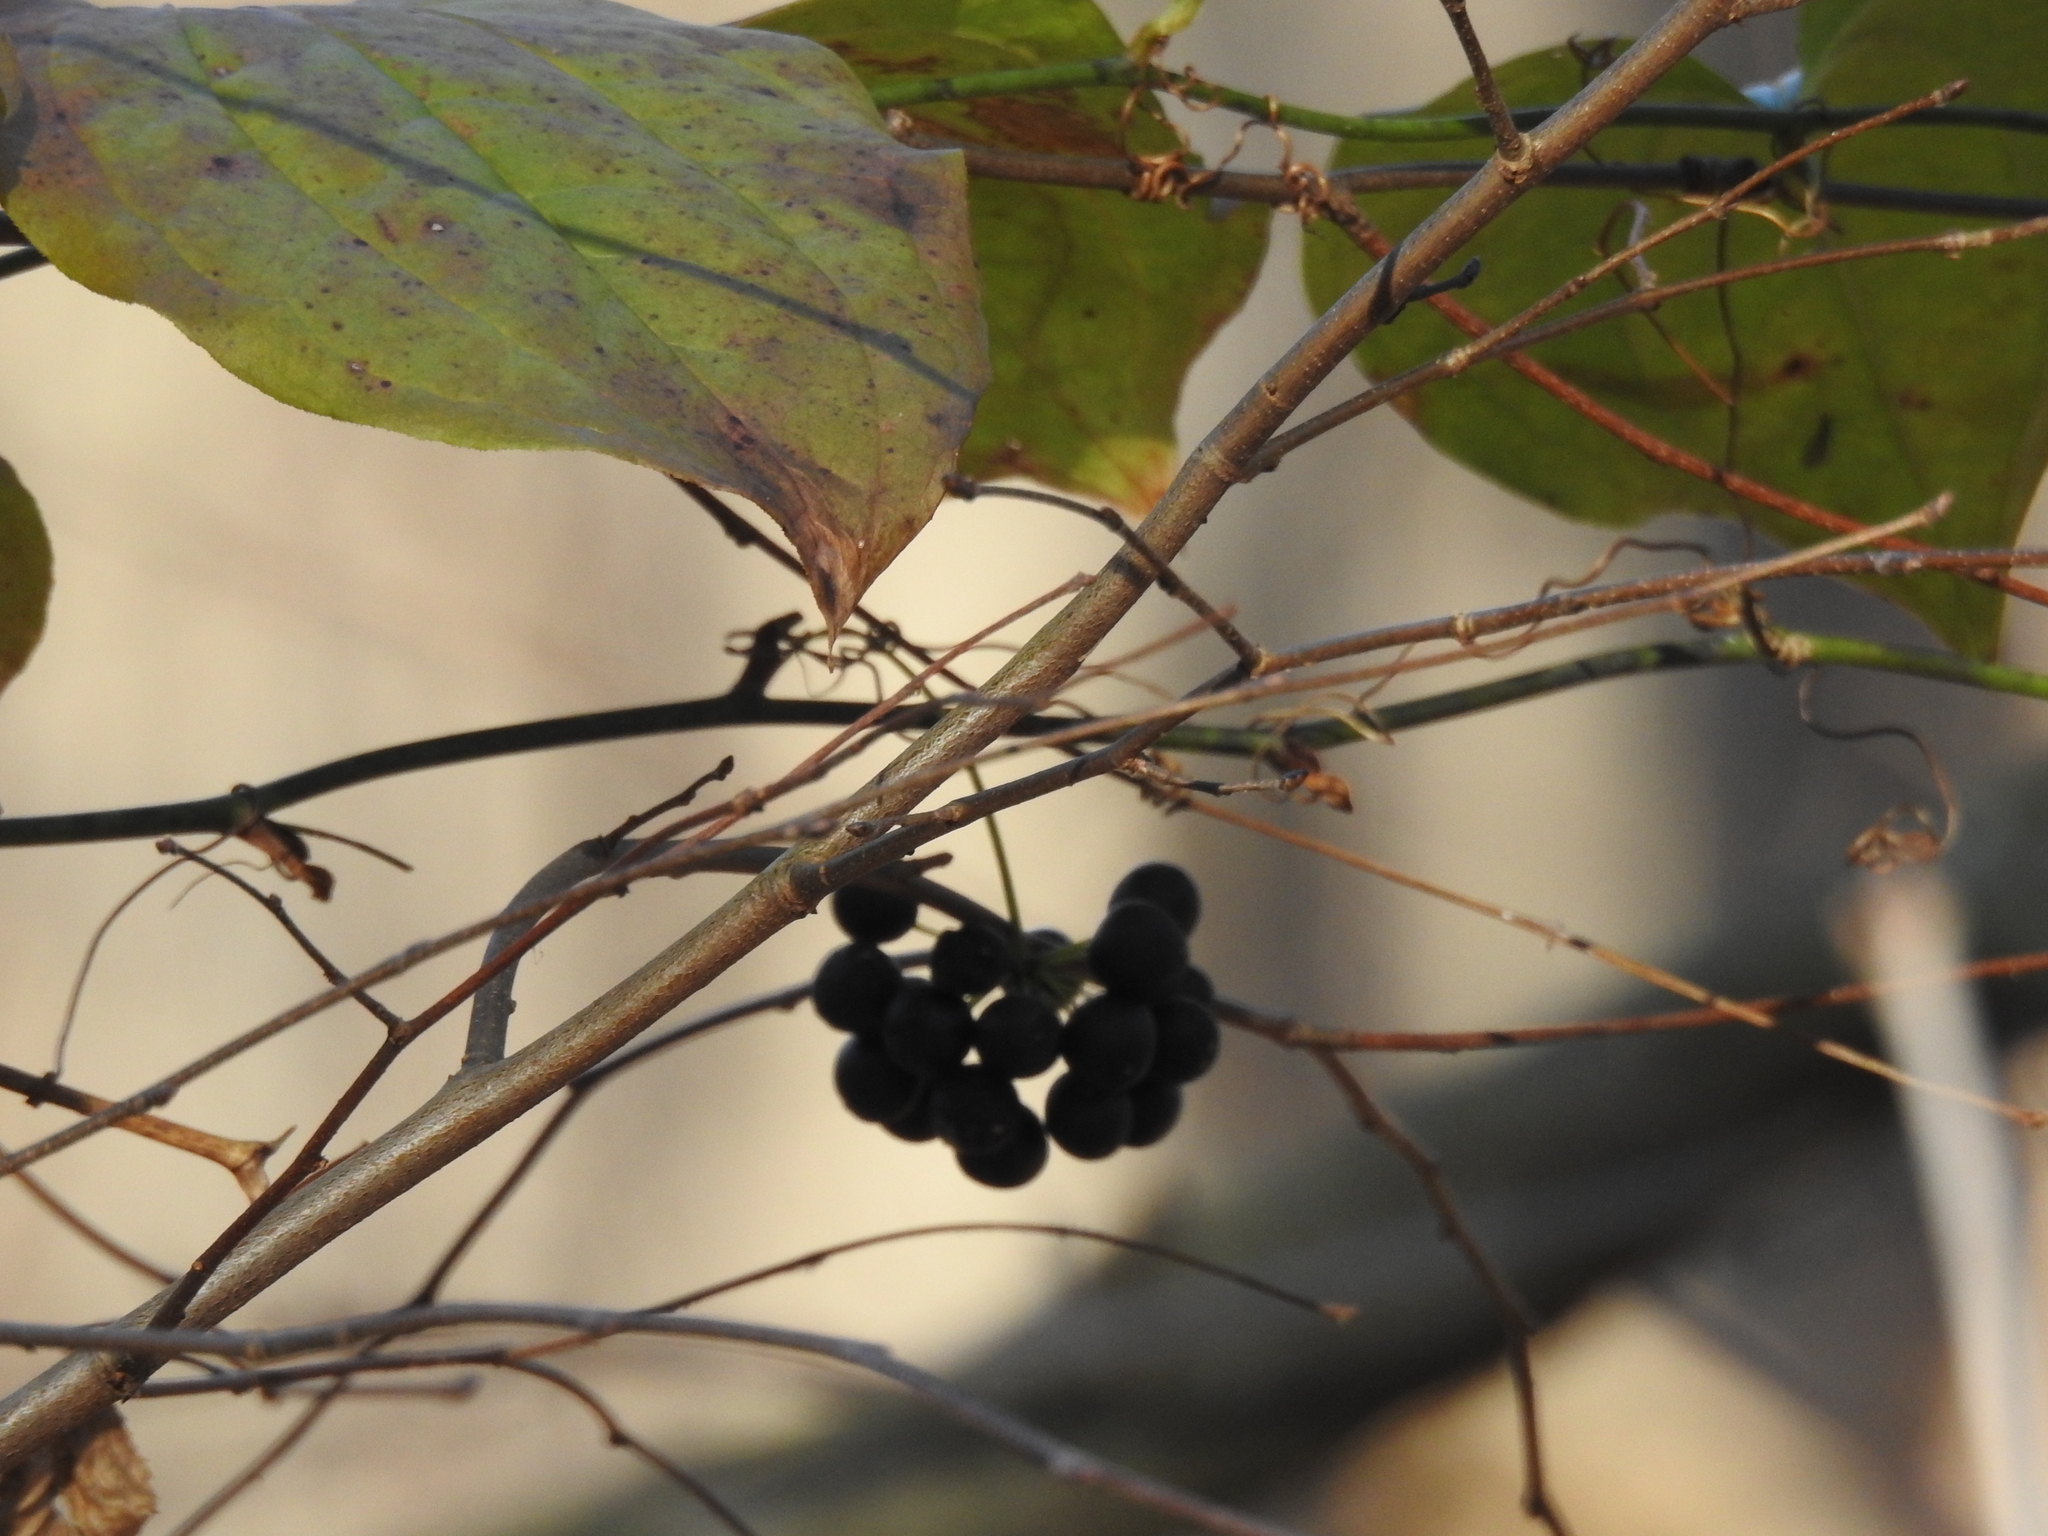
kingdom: Plantae
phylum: Tracheophyta
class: Liliopsida
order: Liliales
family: Smilacaceae
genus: Smilax
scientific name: Smilax tamnoides
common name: Hellfetter
